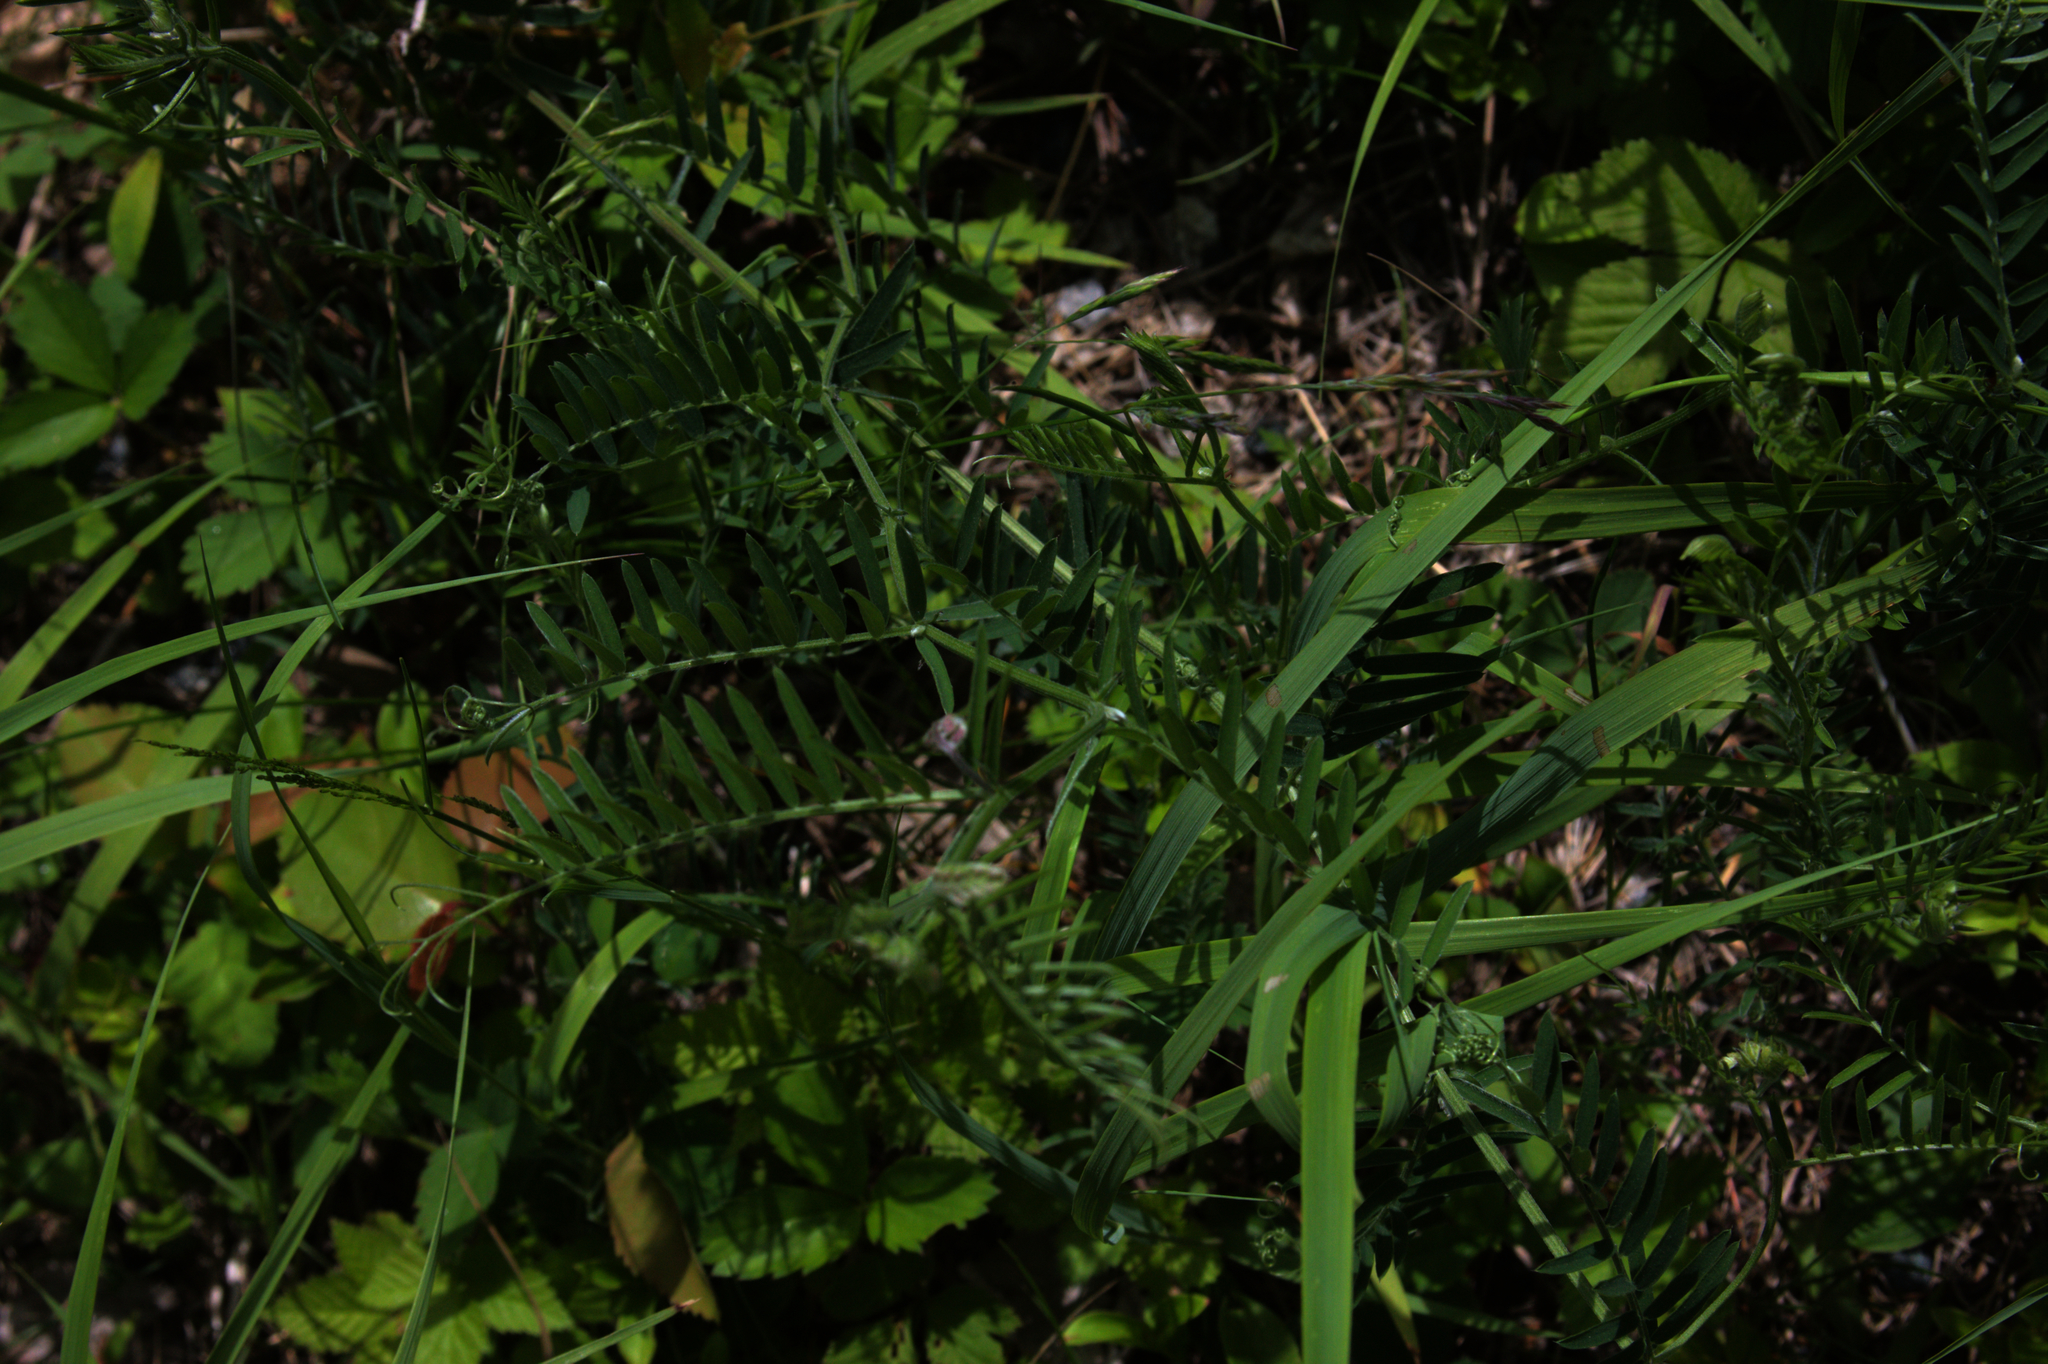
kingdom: Plantae
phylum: Tracheophyta
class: Magnoliopsida
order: Fabales
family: Fabaceae
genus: Vicia
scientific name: Vicia cracca
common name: Bird vetch
